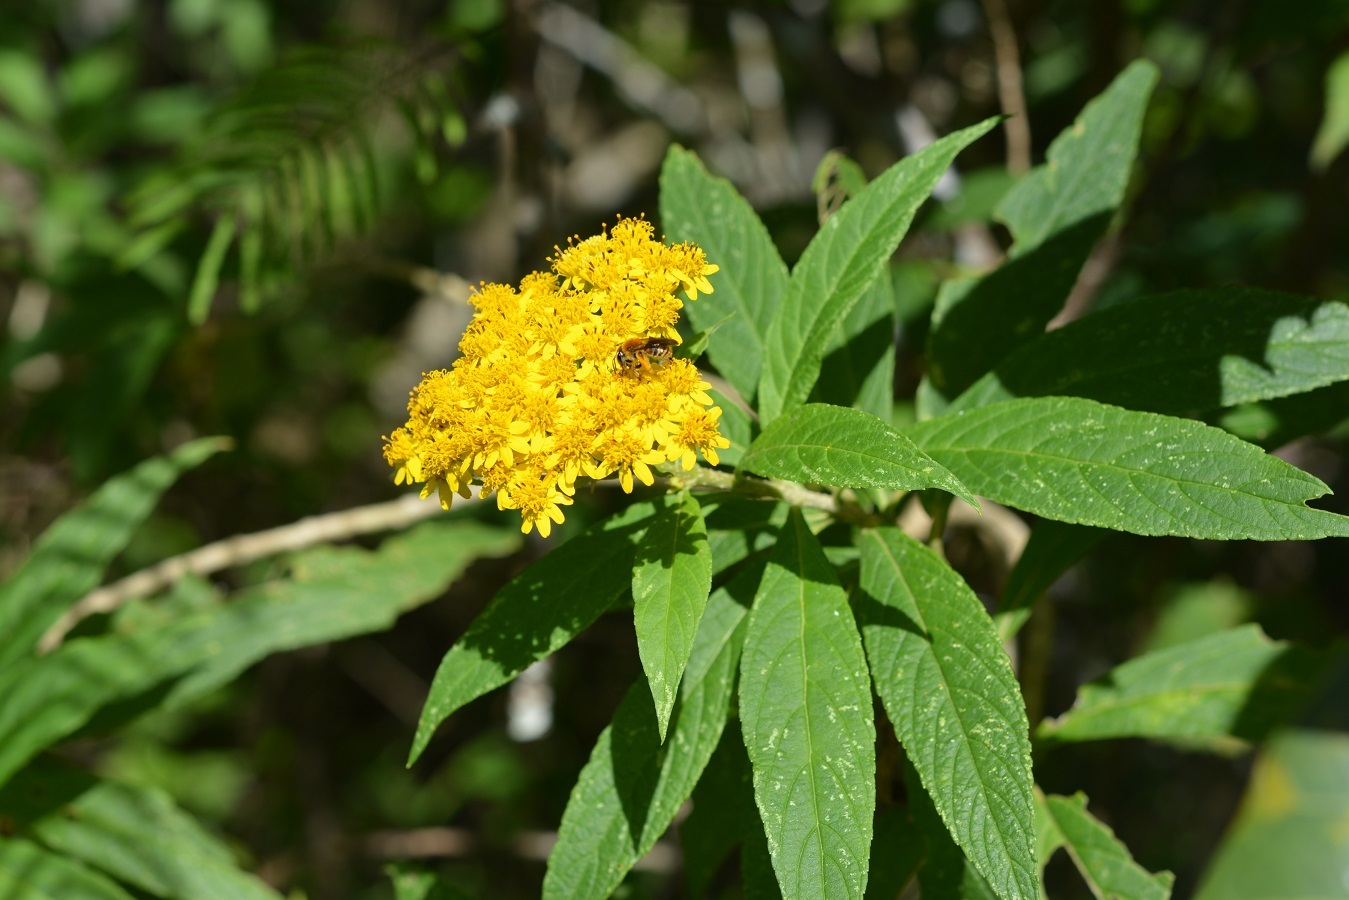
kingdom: Plantae
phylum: Tracheophyta
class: Magnoliopsida
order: Asterales
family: Asteraceae
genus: Zemisia
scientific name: Zemisia thomasii
